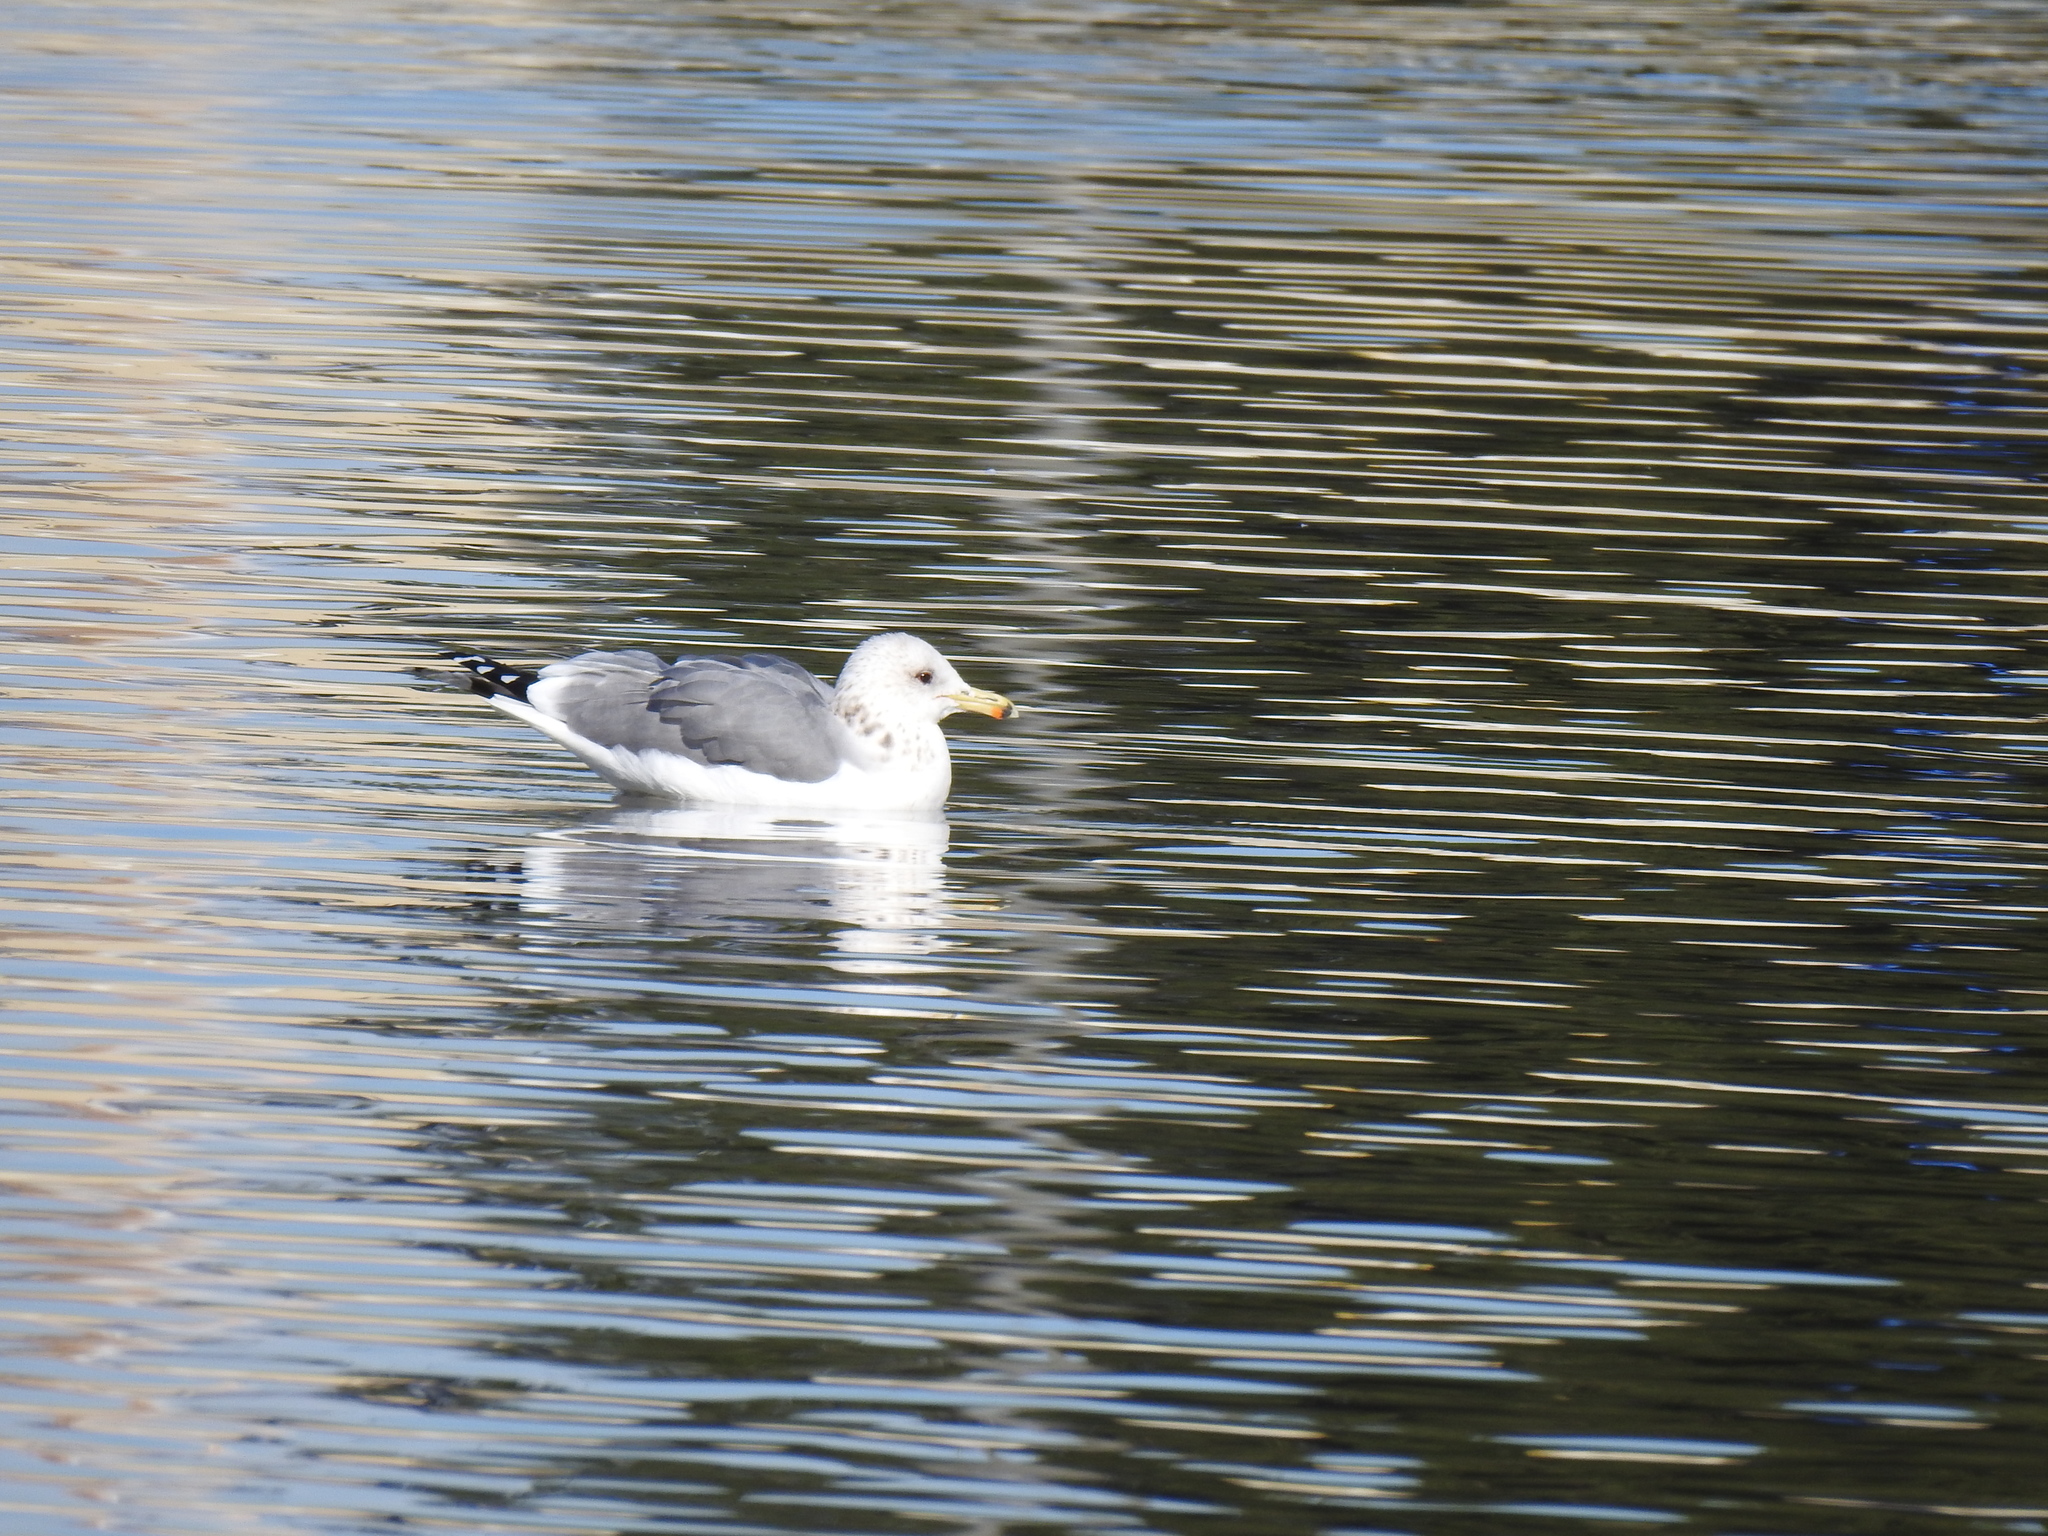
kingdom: Animalia
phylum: Chordata
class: Aves
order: Charadriiformes
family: Laridae
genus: Larus
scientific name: Larus californicus
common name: California gull
